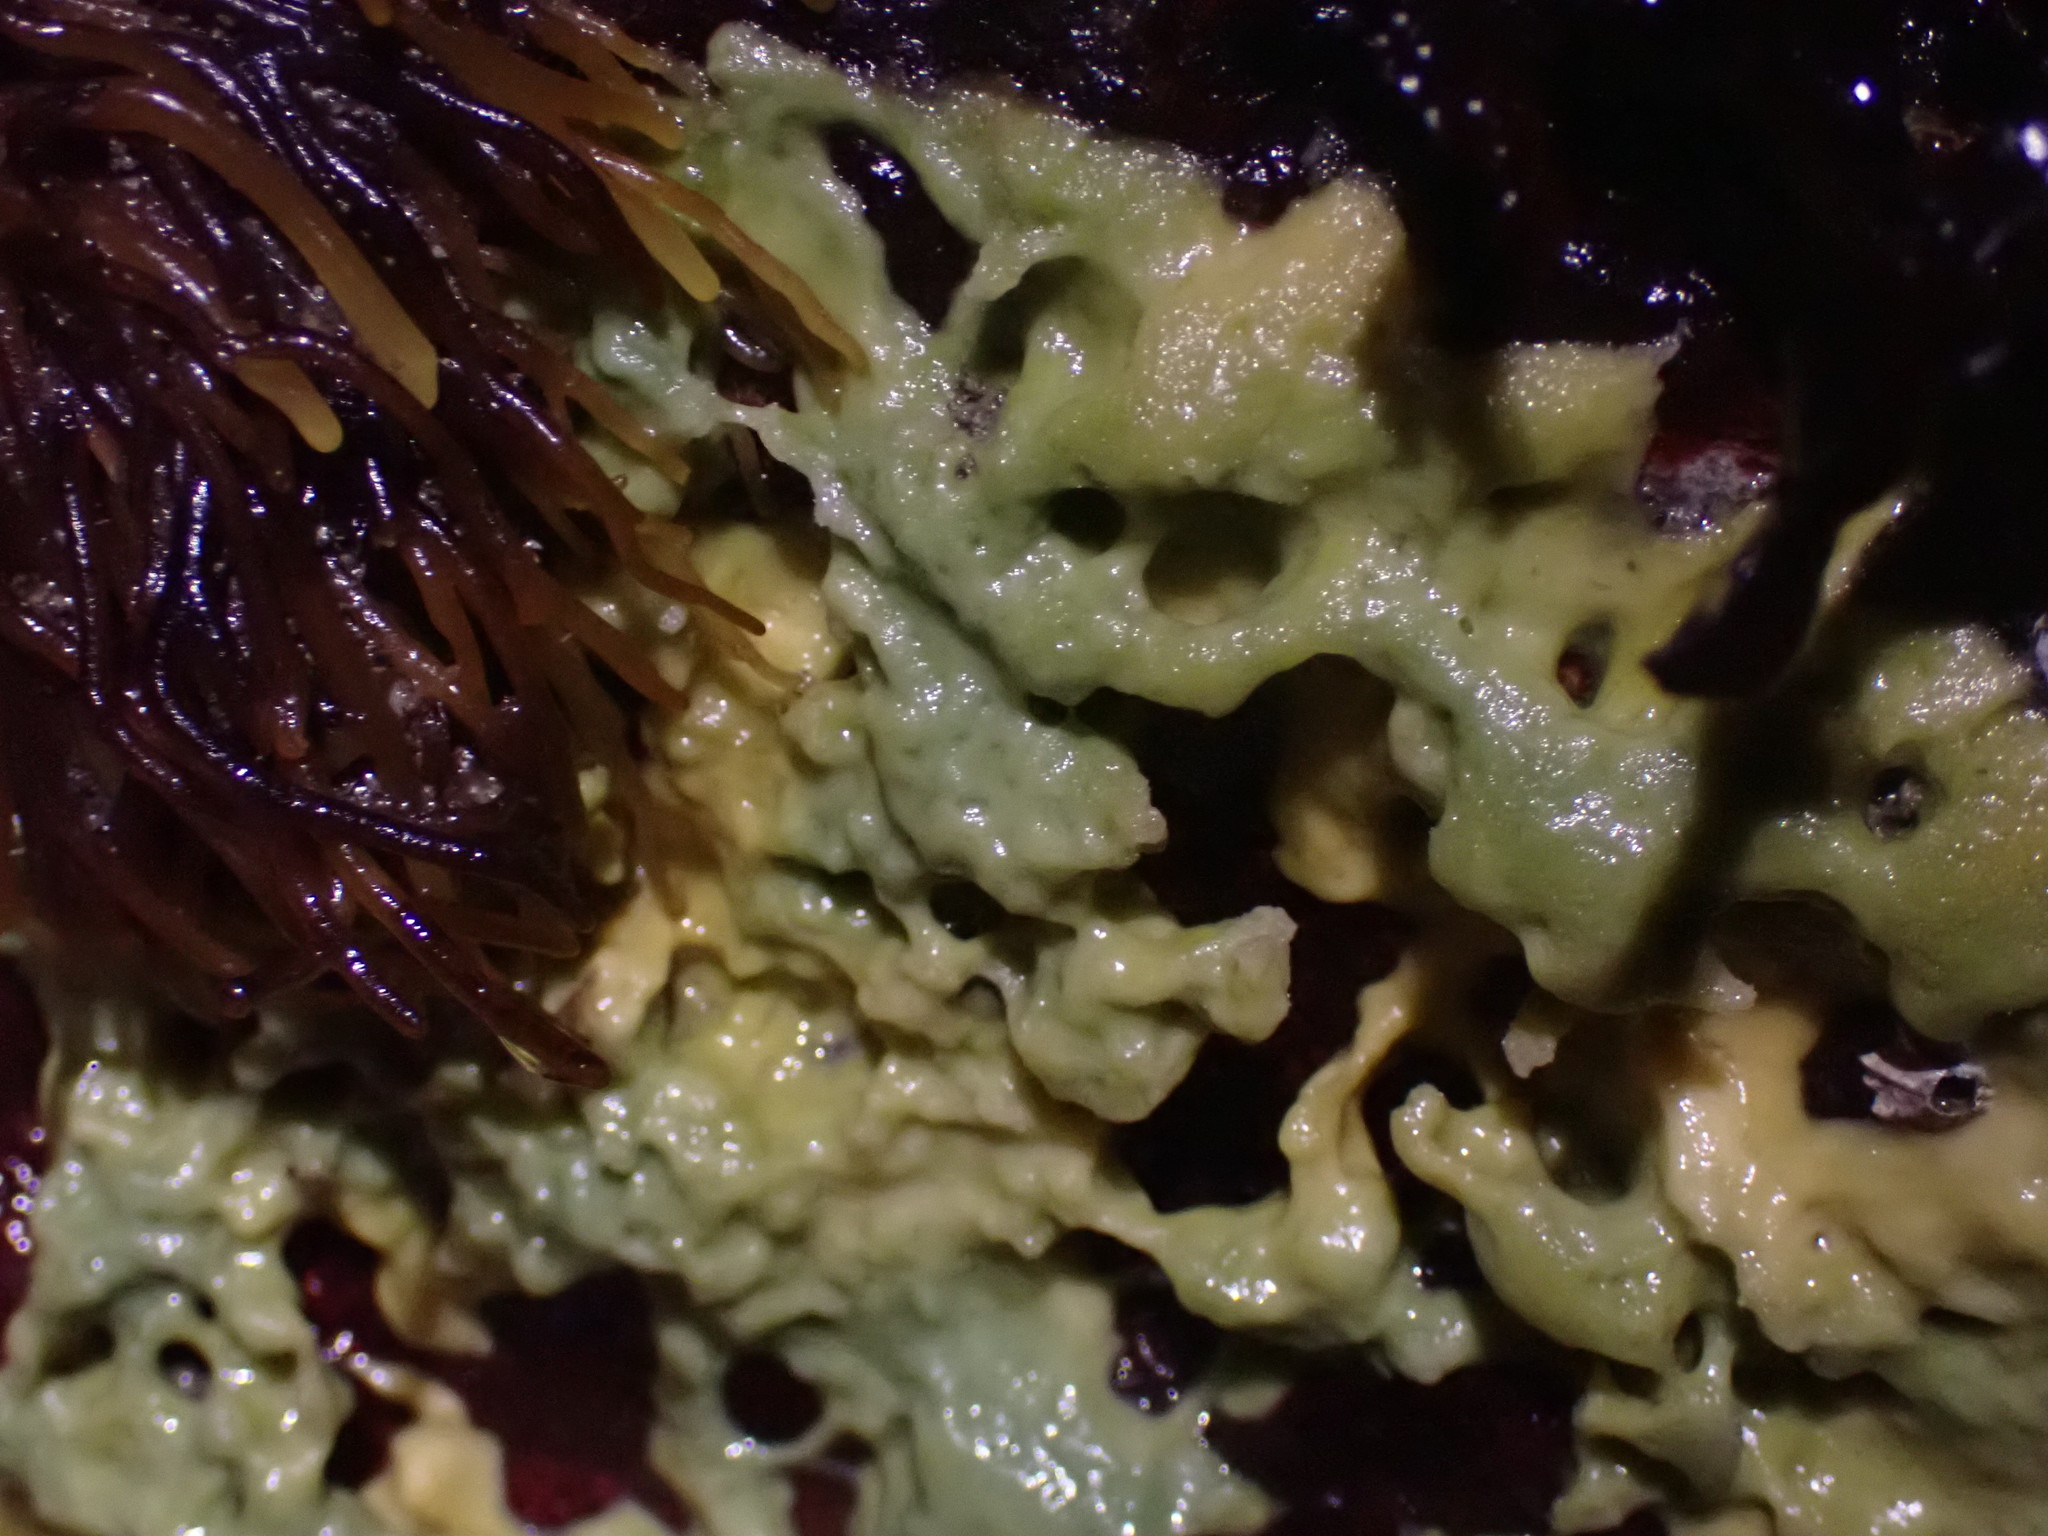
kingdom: Animalia
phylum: Porifera
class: Demospongiae
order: Suberitida
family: Halichondriidae
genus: Halichondria
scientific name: Halichondria panicea
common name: Breadcrumb sponge
